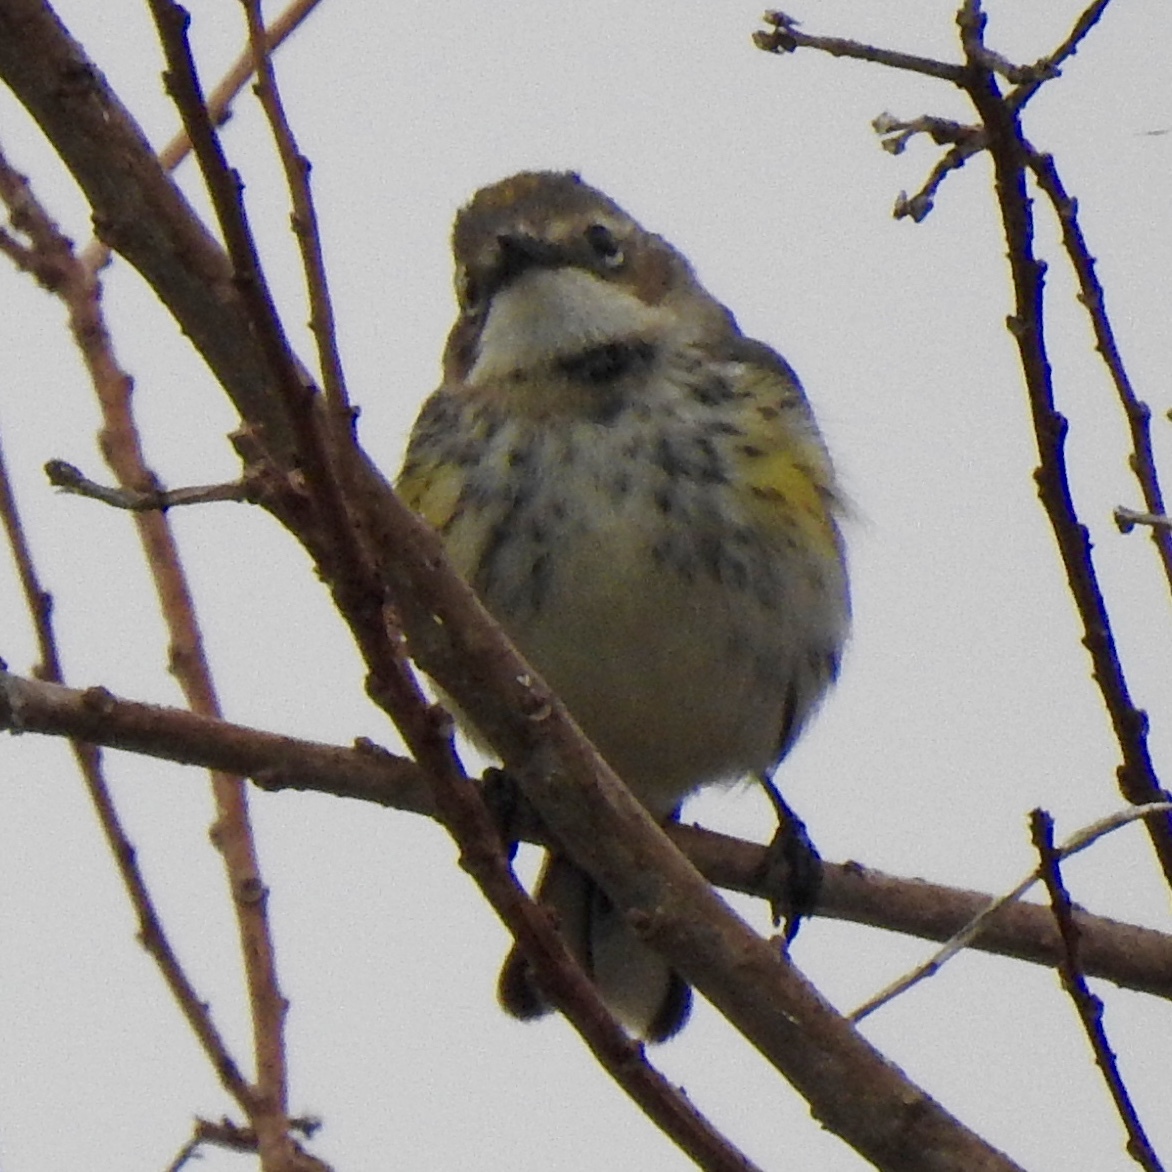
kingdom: Animalia
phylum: Chordata
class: Aves
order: Passeriformes
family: Parulidae
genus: Setophaga
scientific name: Setophaga coronata
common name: Myrtle warbler
